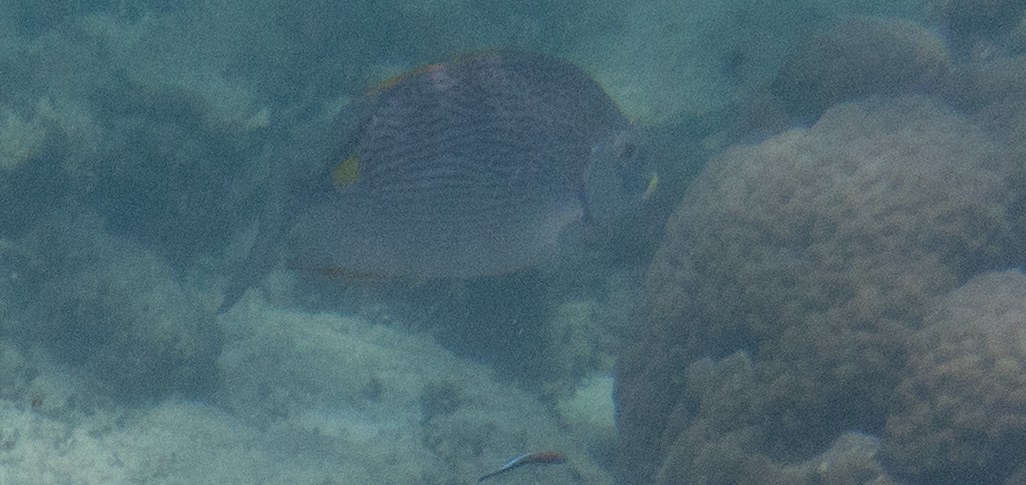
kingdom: Animalia
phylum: Chordata
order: Perciformes
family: Siganidae
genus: Siganus
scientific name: Siganus lineatus
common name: Lined rabbitfish
